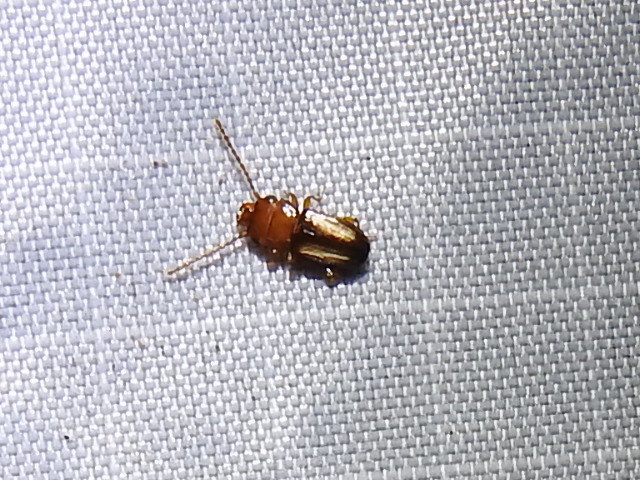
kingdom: Animalia
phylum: Arthropoda
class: Insecta
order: Coleoptera
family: Laemophloeidae
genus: Laemophloeus
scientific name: Laemophloeus terminalis
